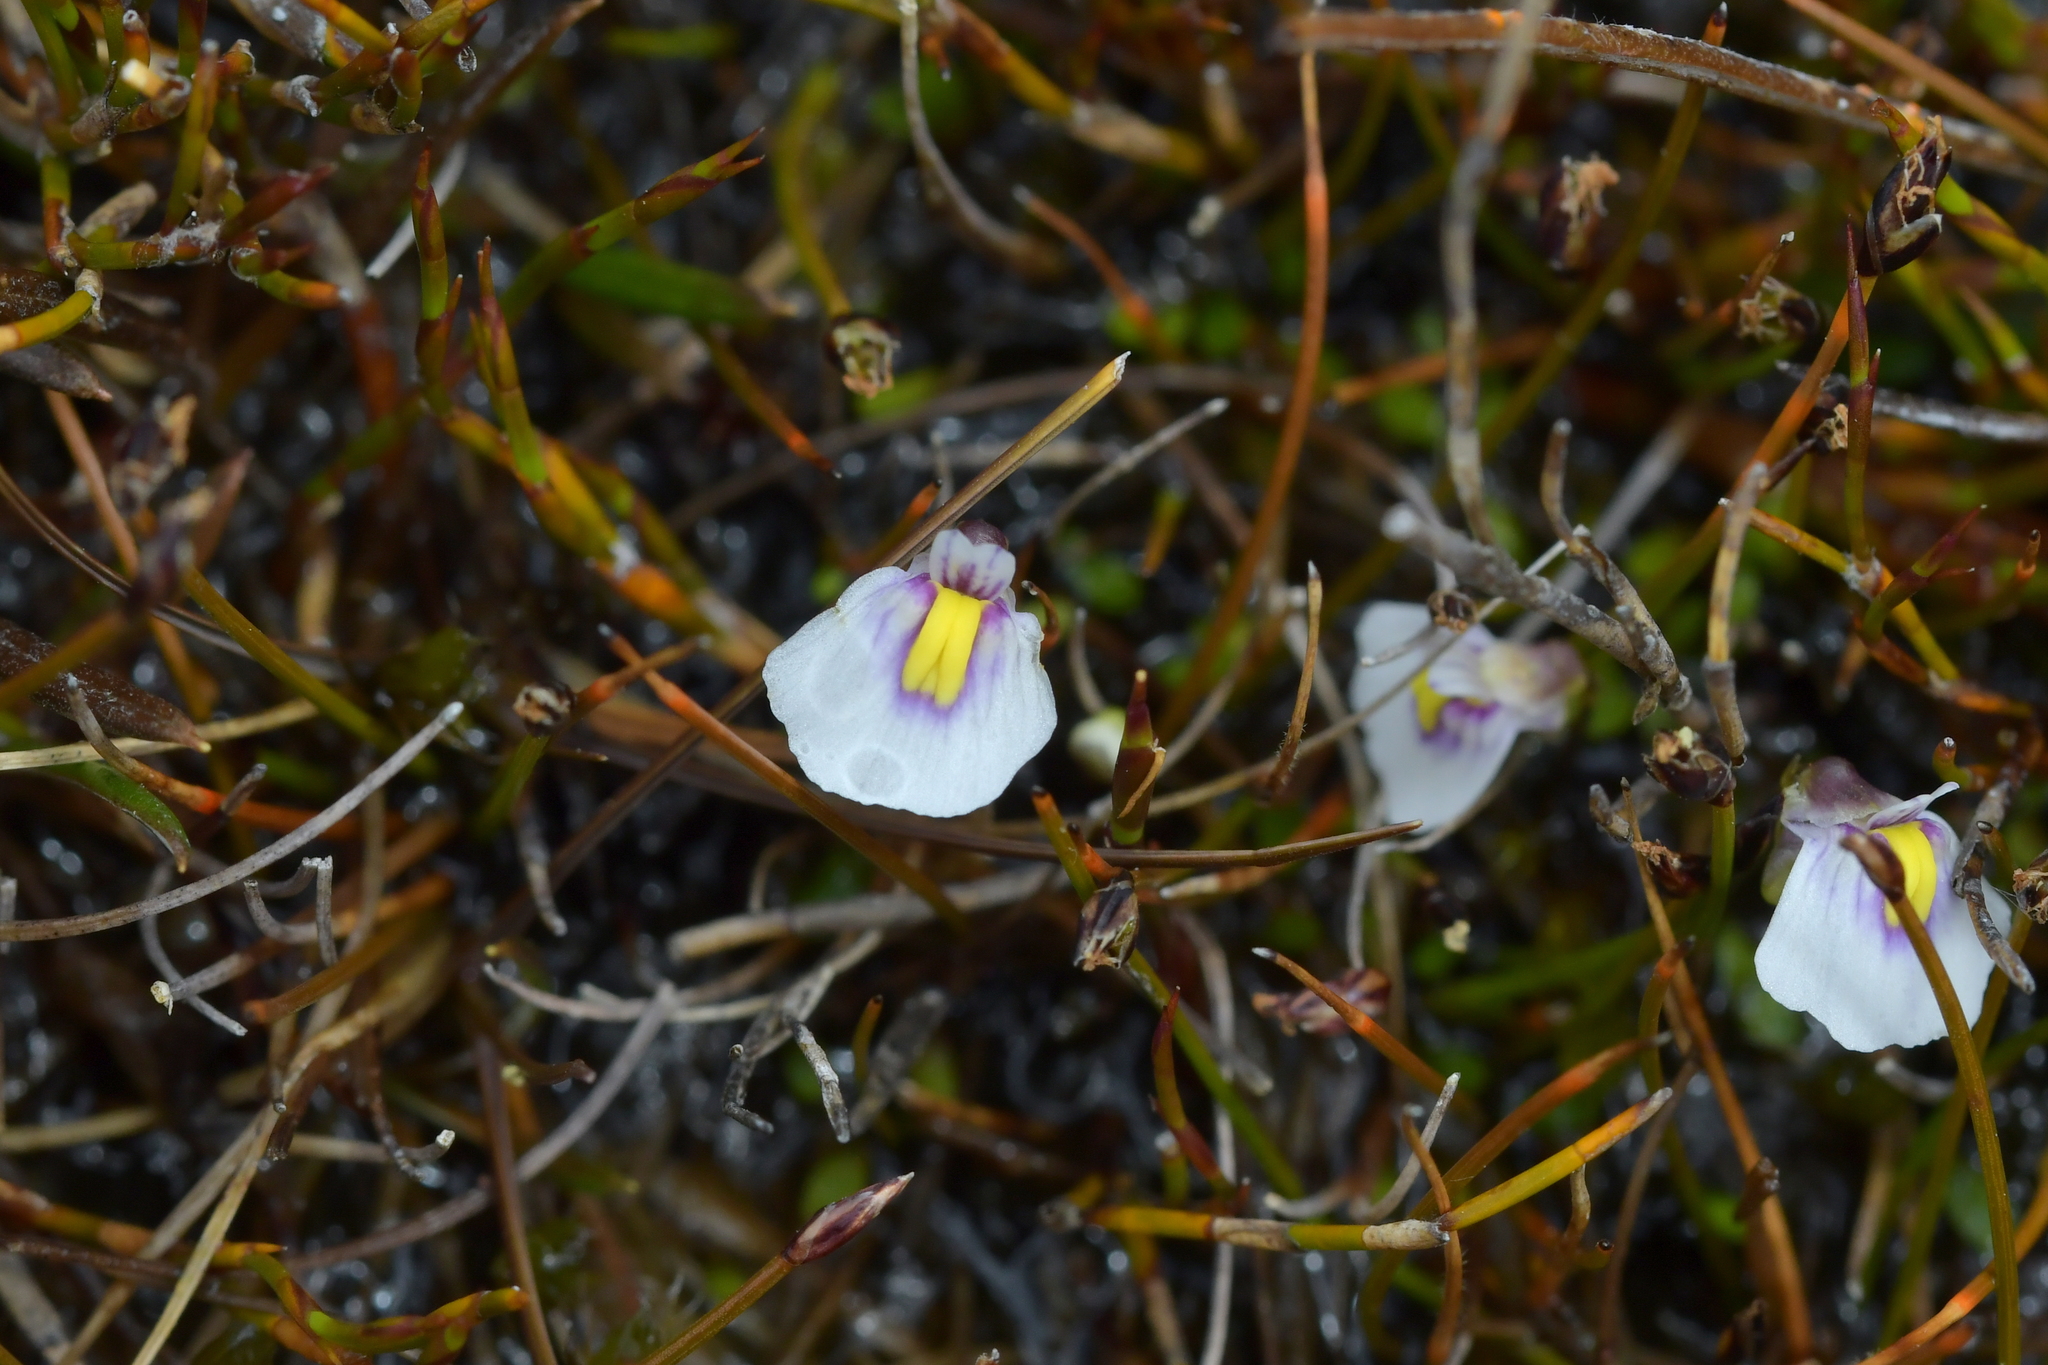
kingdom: Plantae
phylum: Tracheophyta
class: Magnoliopsida
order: Lamiales
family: Lentibulariaceae
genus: Utricularia
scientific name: Utricularia dichotoma
